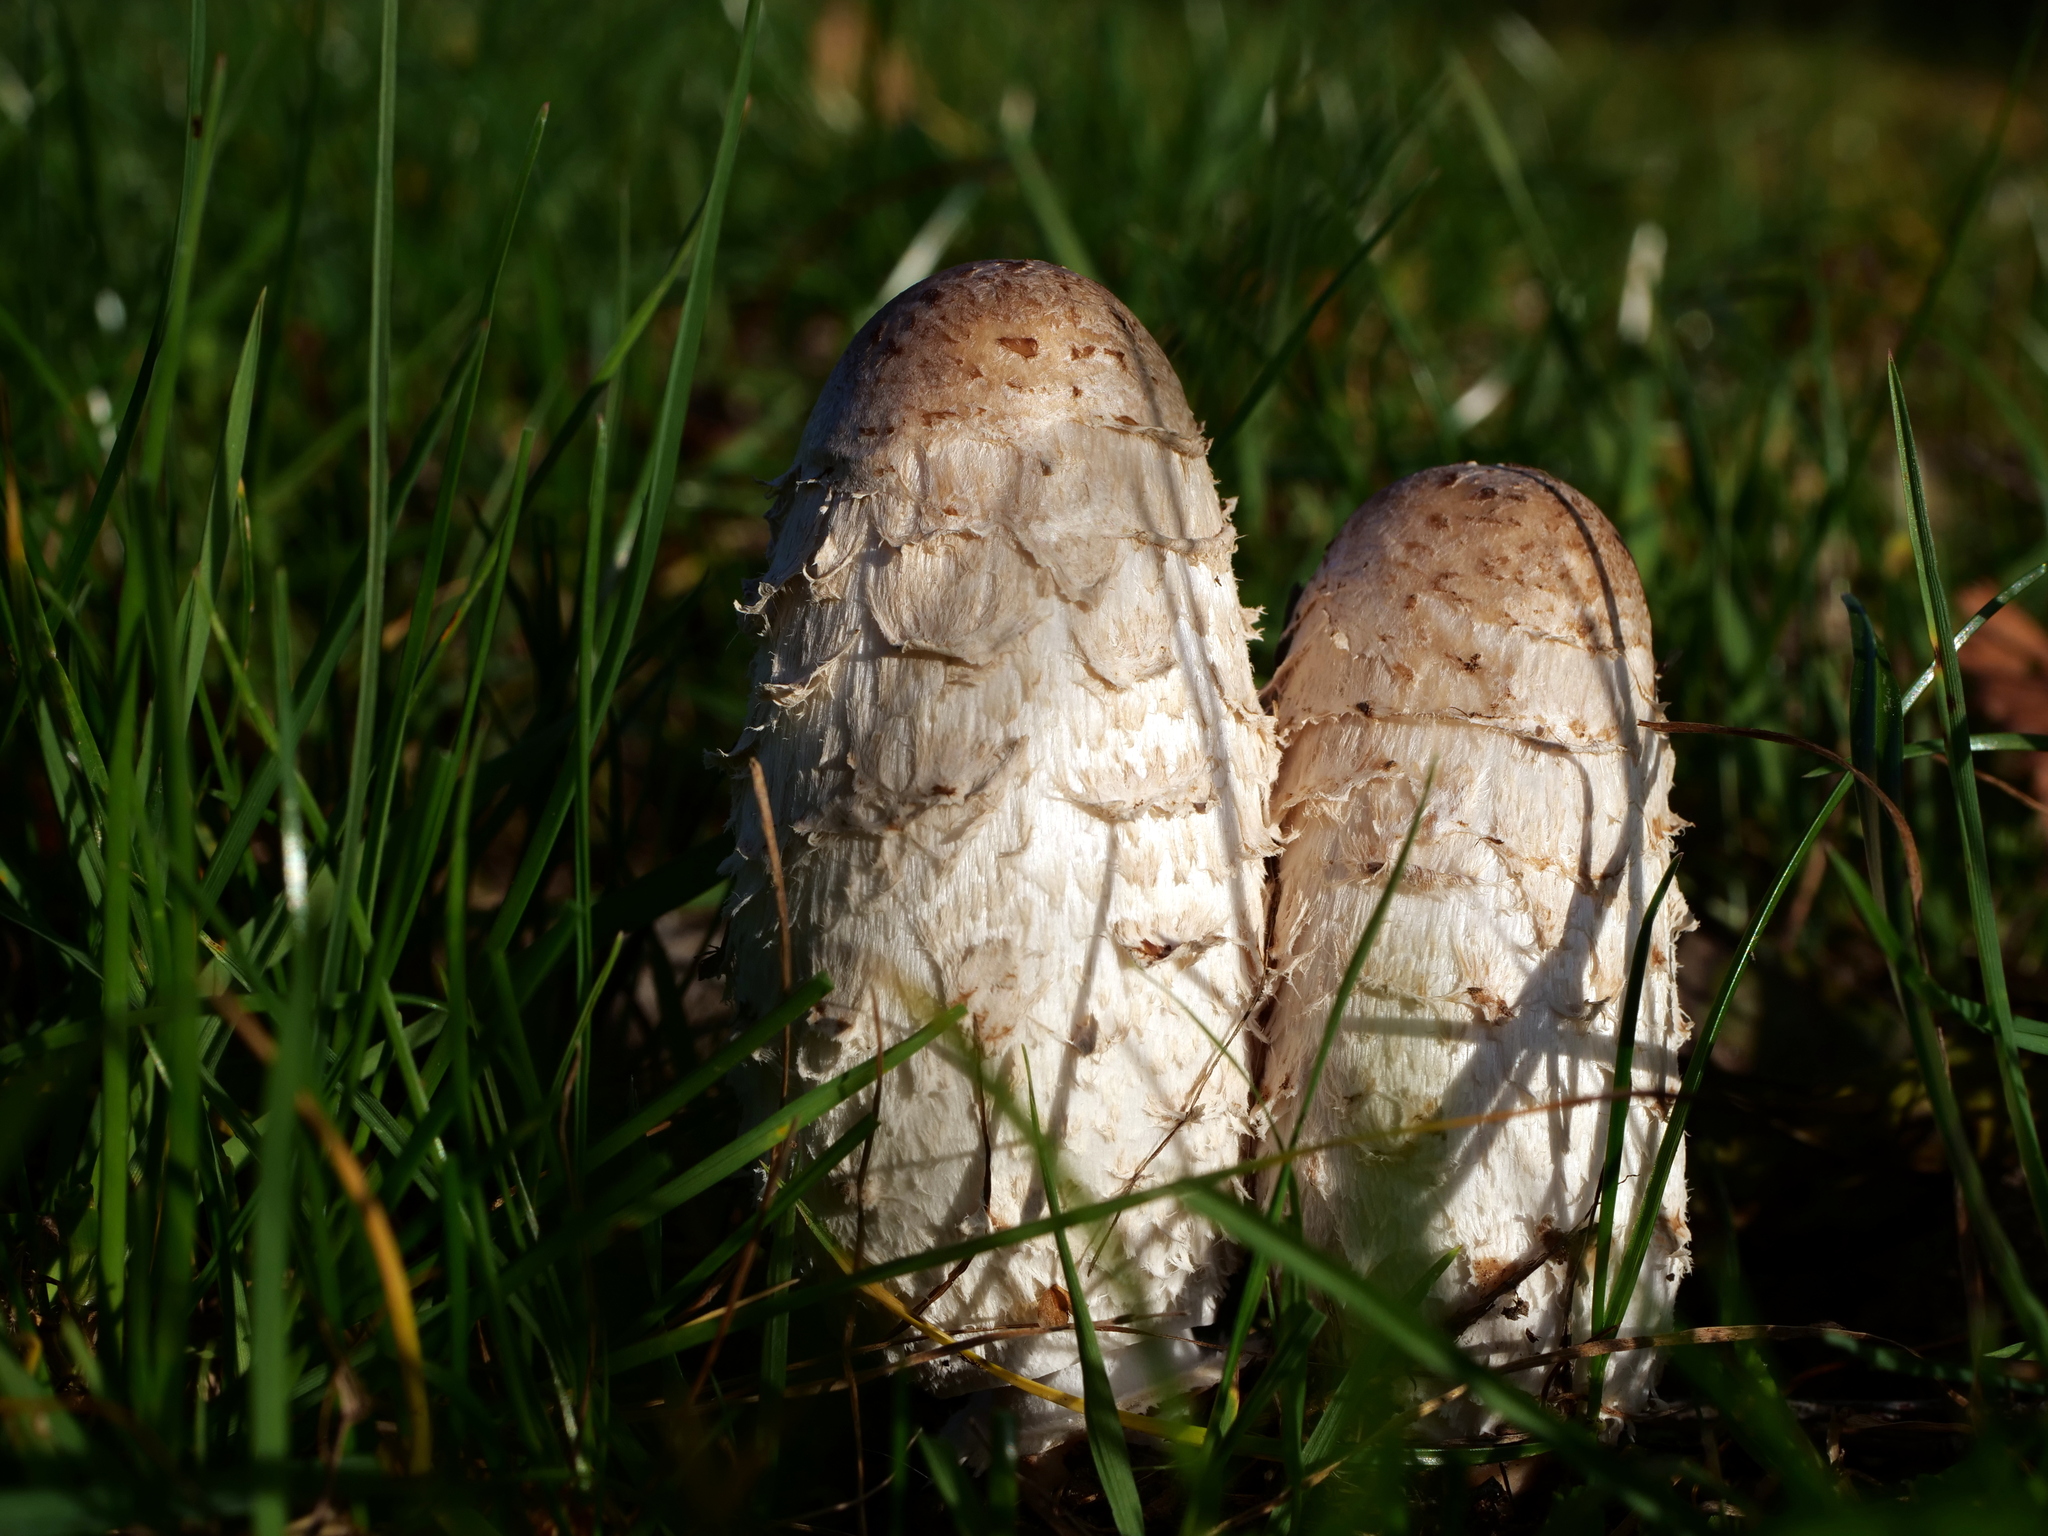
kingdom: Fungi
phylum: Basidiomycota
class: Agaricomycetes
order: Agaricales
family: Agaricaceae
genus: Coprinus
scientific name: Coprinus comatus
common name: Lawyer's wig
